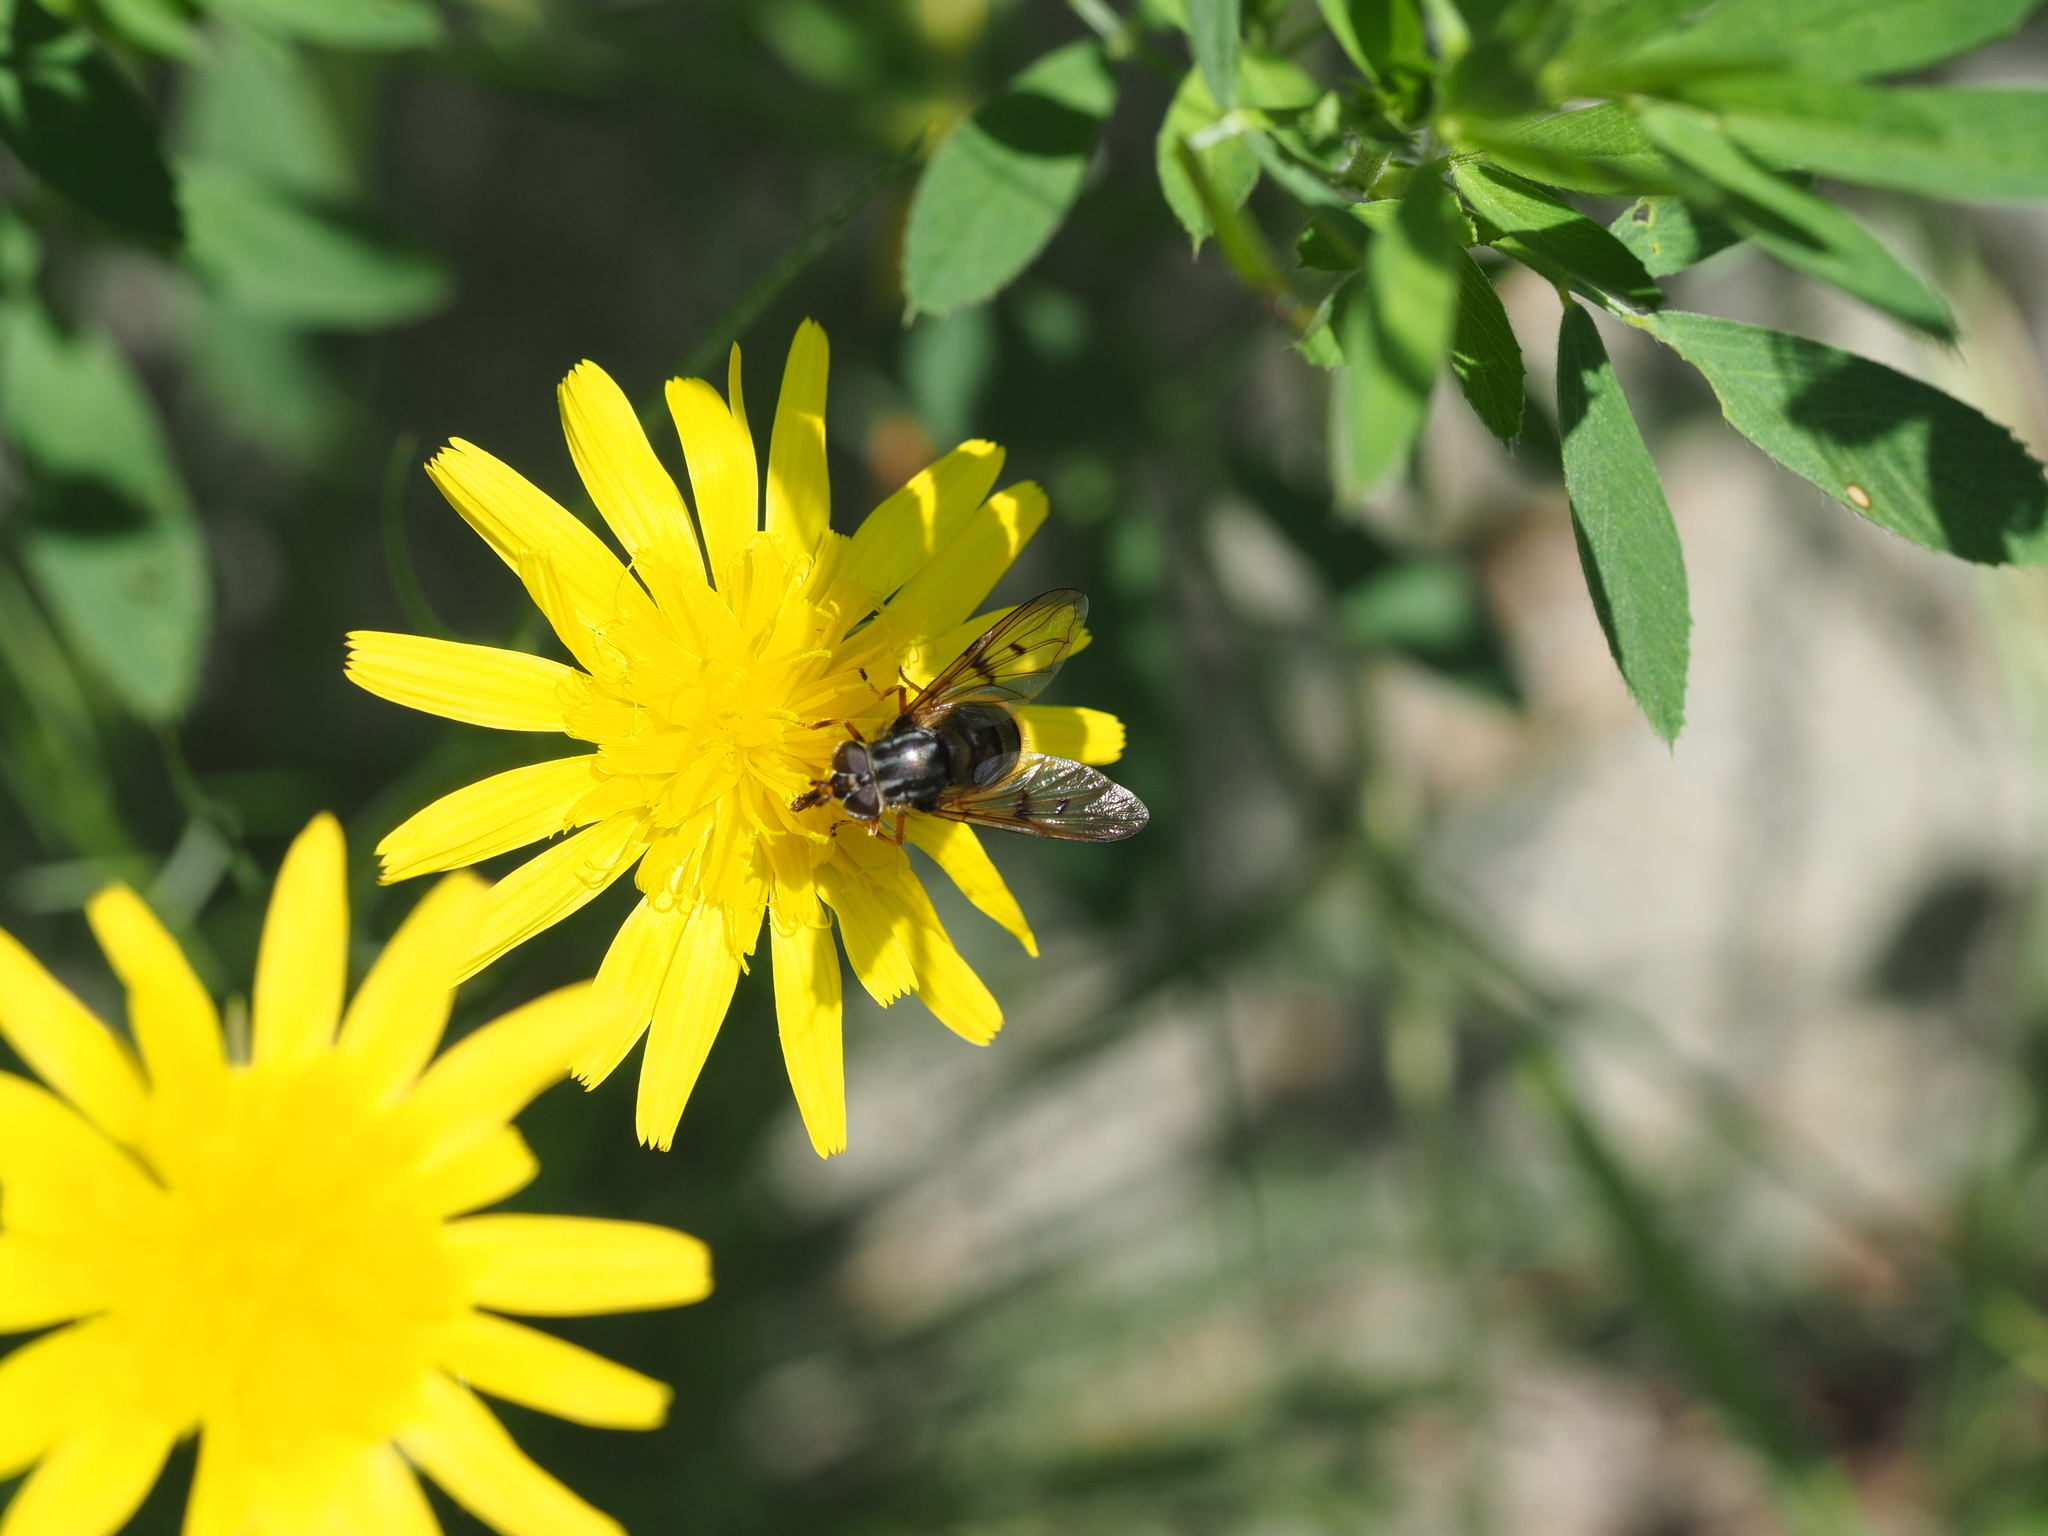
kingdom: Animalia
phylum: Arthropoda
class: Insecta
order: Diptera
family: Syrphidae
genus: Ferdinandea
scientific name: Ferdinandea cuprea
